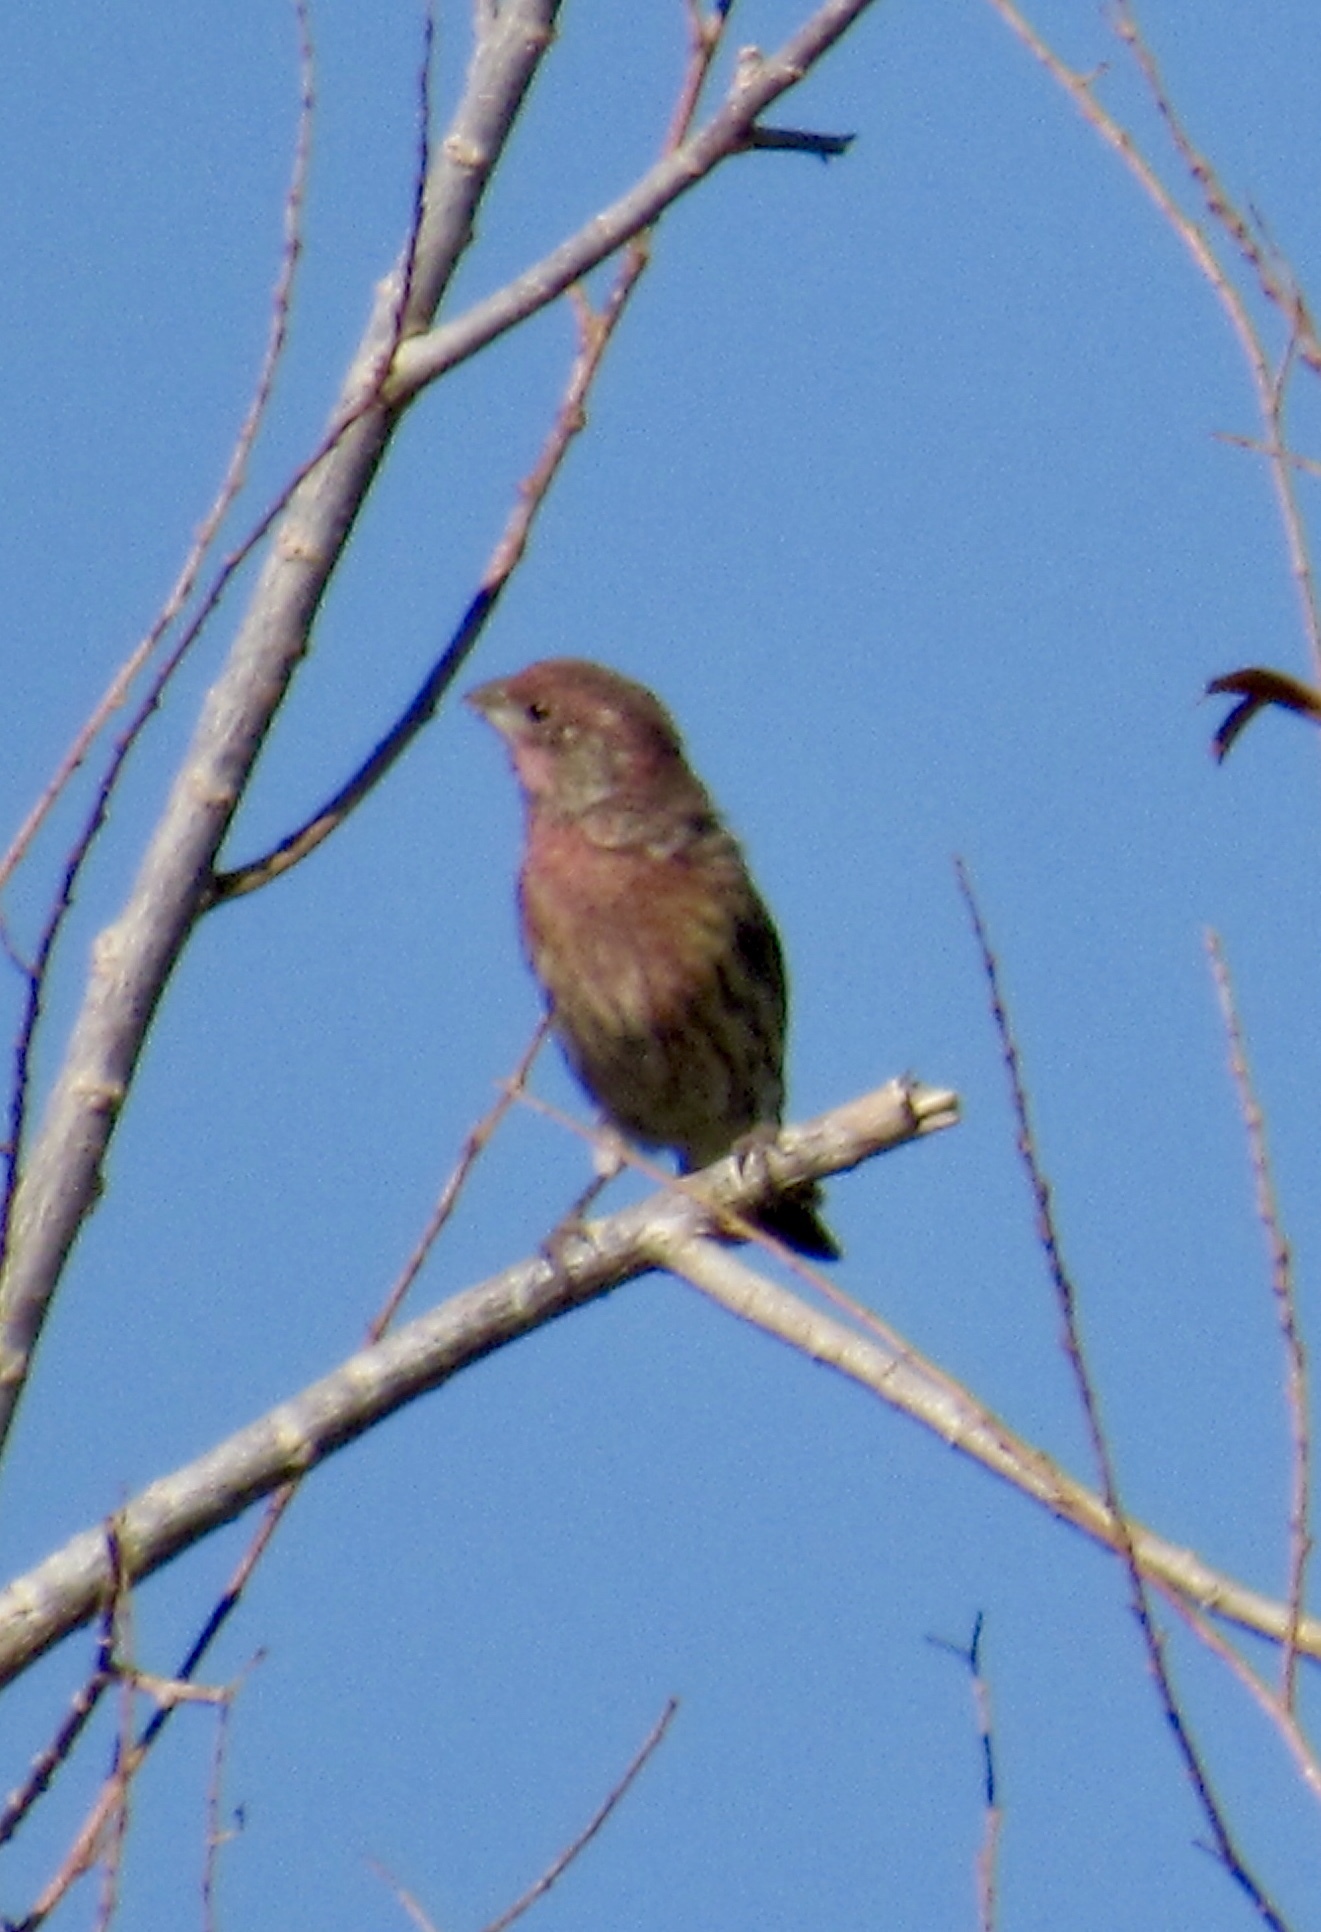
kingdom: Animalia
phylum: Chordata
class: Aves
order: Passeriformes
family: Fringillidae
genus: Haemorhous
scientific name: Haemorhous mexicanus
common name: House finch
